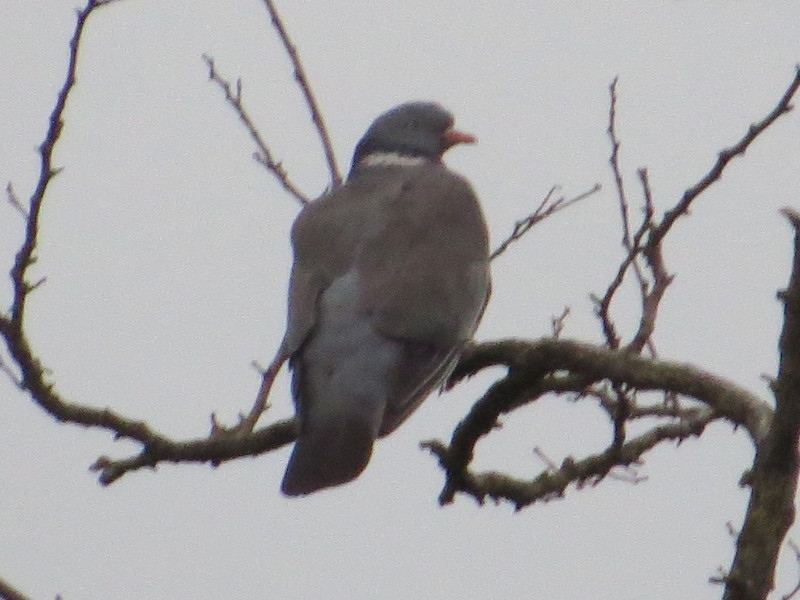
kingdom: Animalia
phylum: Chordata
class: Aves
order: Columbiformes
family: Columbidae
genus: Columba
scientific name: Columba palumbus
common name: Common wood pigeon
